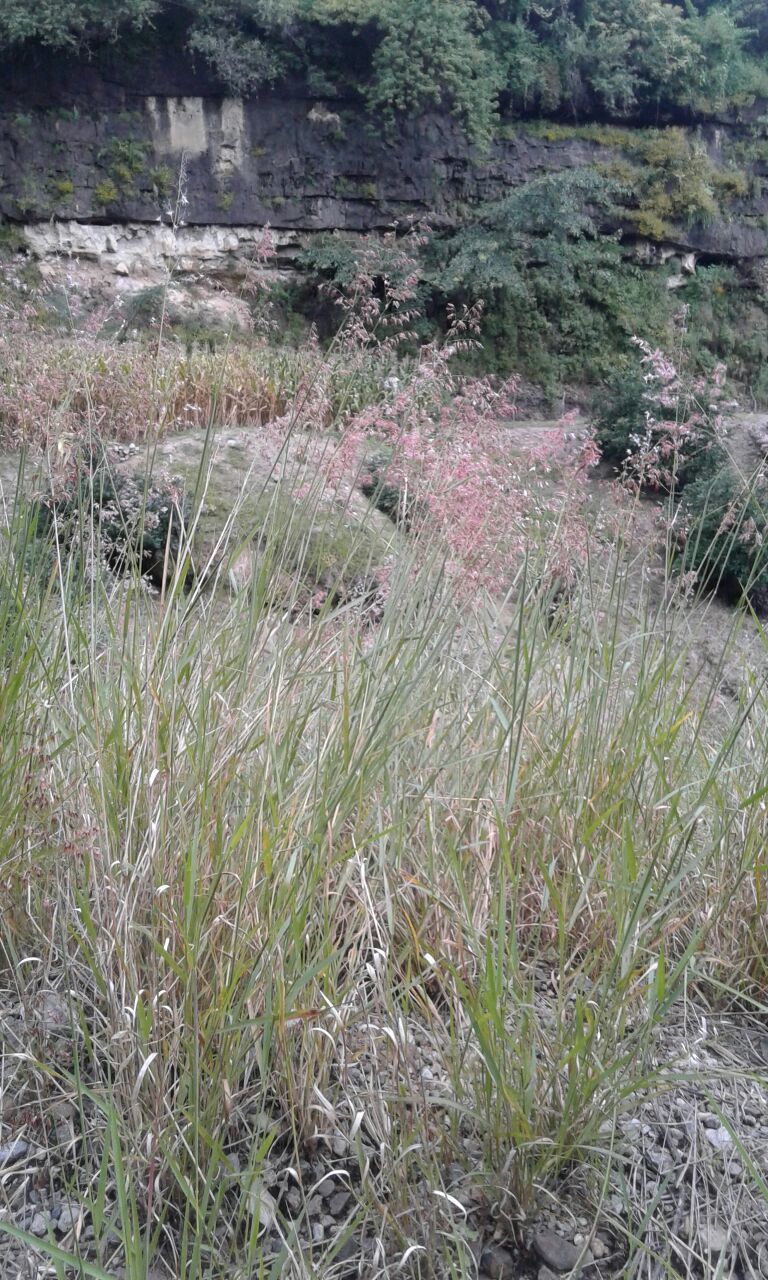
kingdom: Plantae
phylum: Tracheophyta
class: Liliopsida
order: Poales
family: Poaceae
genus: Melinis
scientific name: Melinis repens
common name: Rose natal grass
